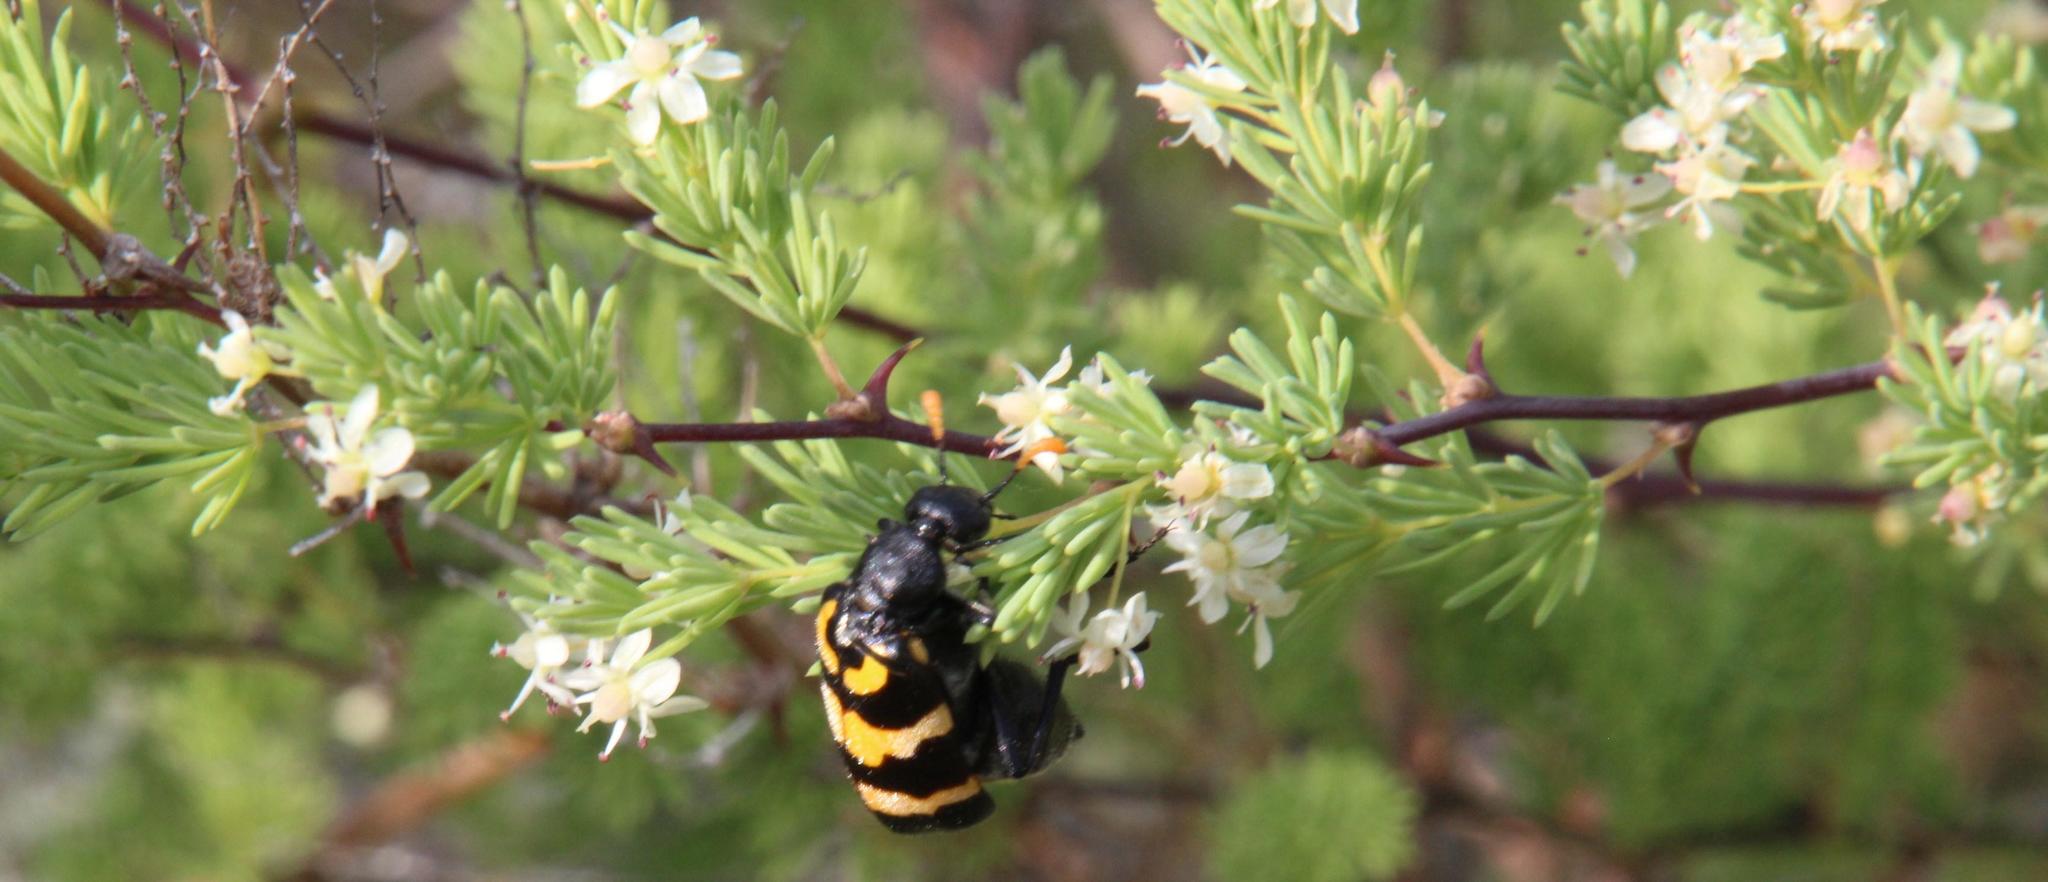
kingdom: Plantae
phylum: Tracheophyta
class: Liliopsida
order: Asparagales
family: Asparagaceae
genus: Asparagus
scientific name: Asparagus rubicundus
